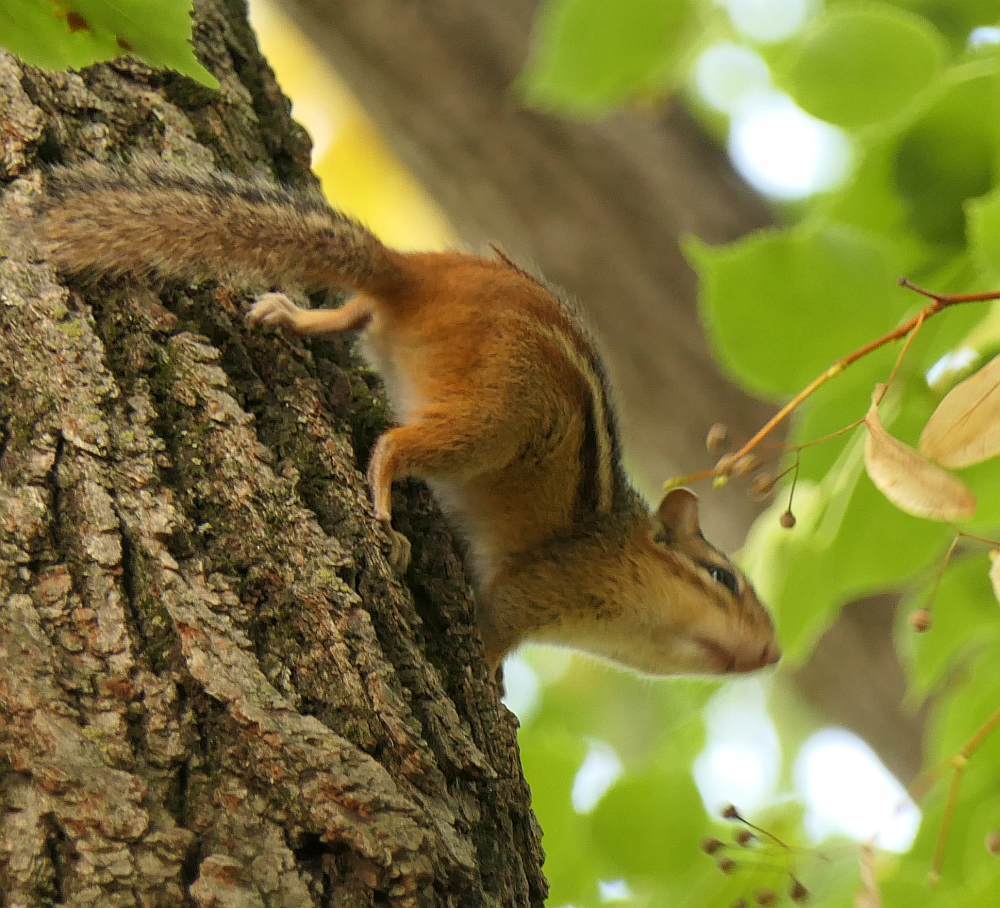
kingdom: Animalia
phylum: Chordata
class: Mammalia
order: Rodentia
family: Sciuridae
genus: Tamias
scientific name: Tamias striatus
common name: Eastern chipmunk
